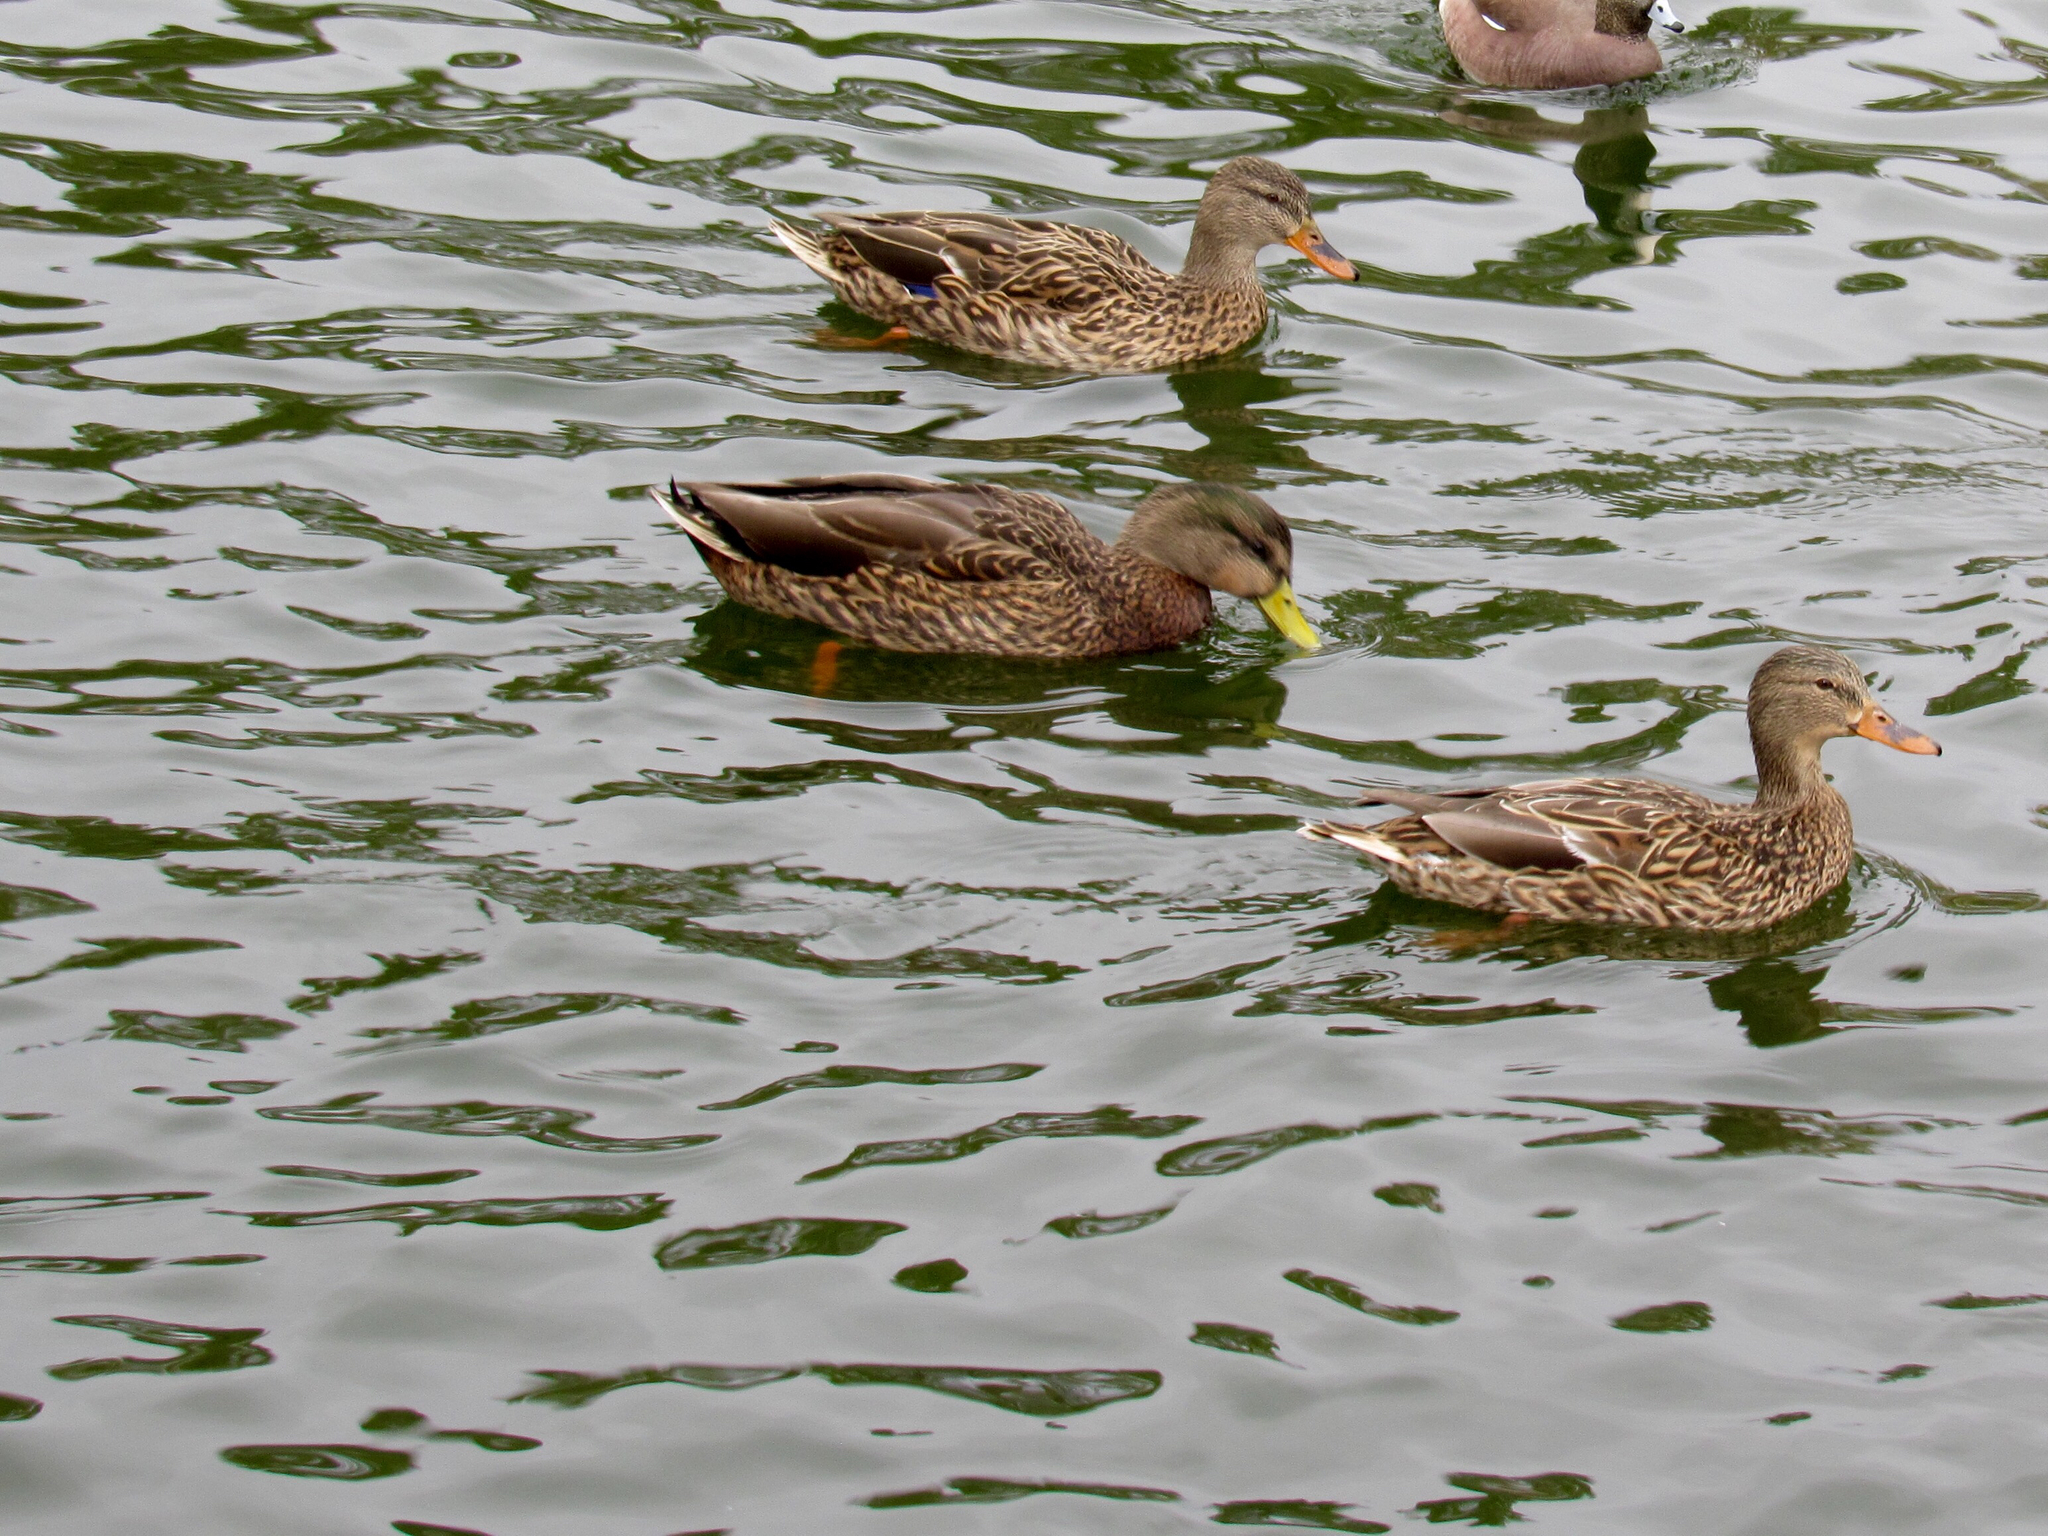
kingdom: Animalia
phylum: Chordata
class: Aves
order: Anseriformes
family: Anatidae
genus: Anas
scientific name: Anas
